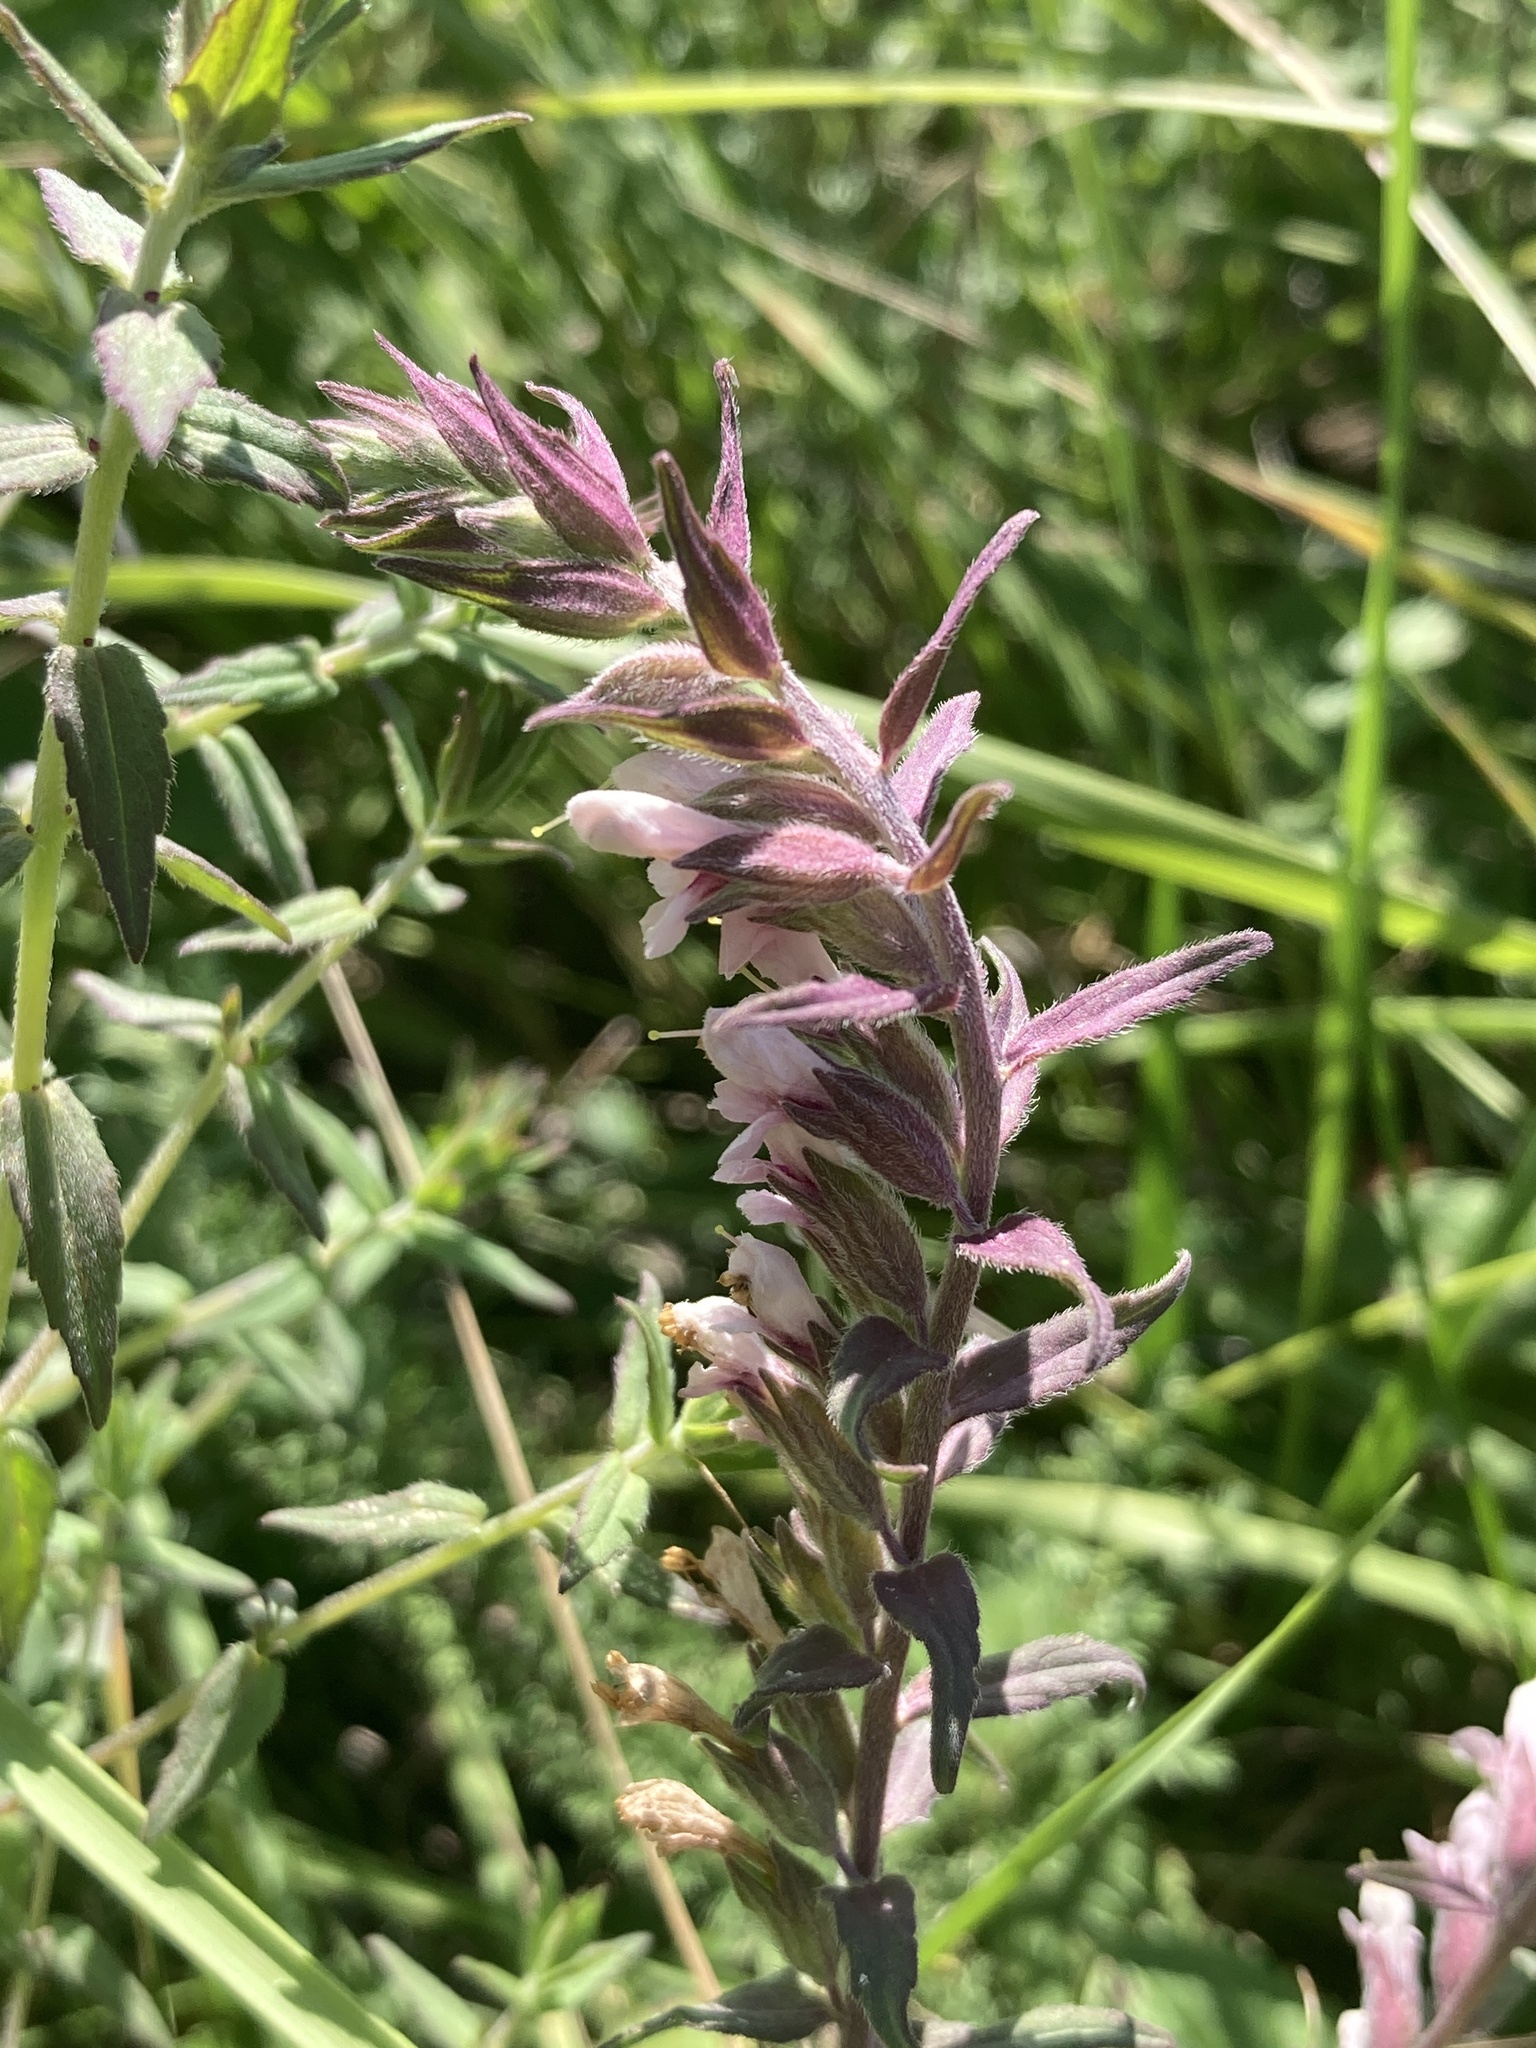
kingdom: Plantae
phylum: Tracheophyta
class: Magnoliopsida
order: Lamiales
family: Orobanchaceae
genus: Odontites
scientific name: Odontites vulgaris
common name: Broomrape
